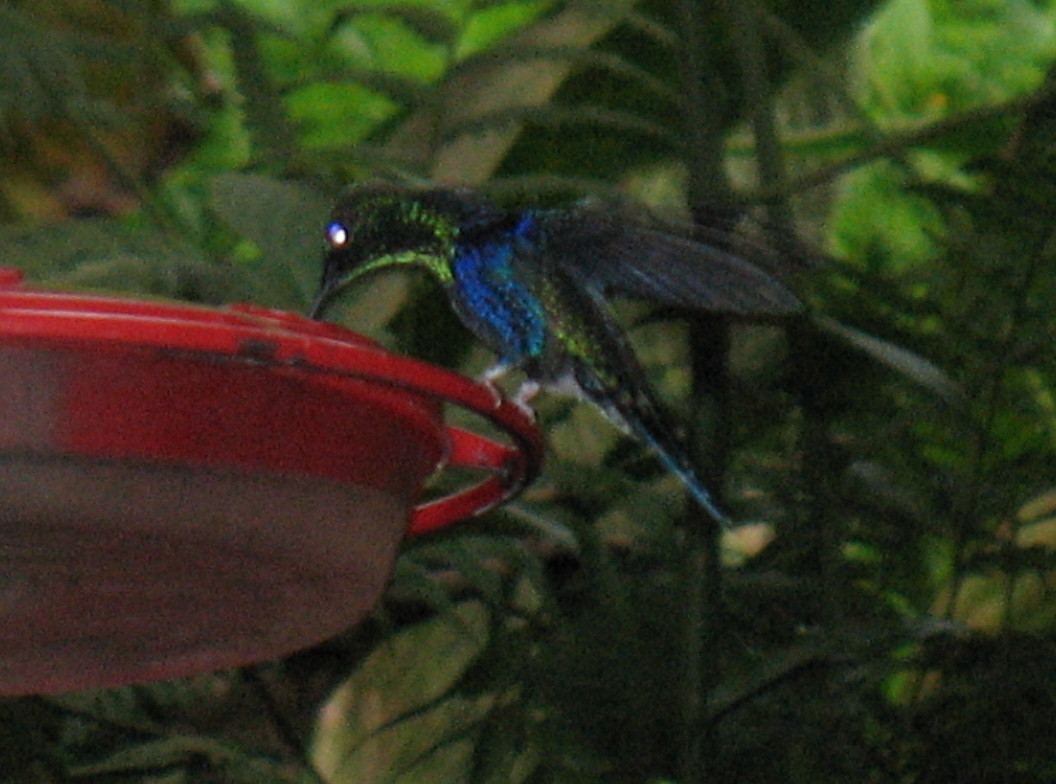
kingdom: Animalia
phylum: Chordata
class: Aves
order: Apodiformes
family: Trochilidae
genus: Thalurania
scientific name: Thalurania colombica
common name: Crowned woodnymph
